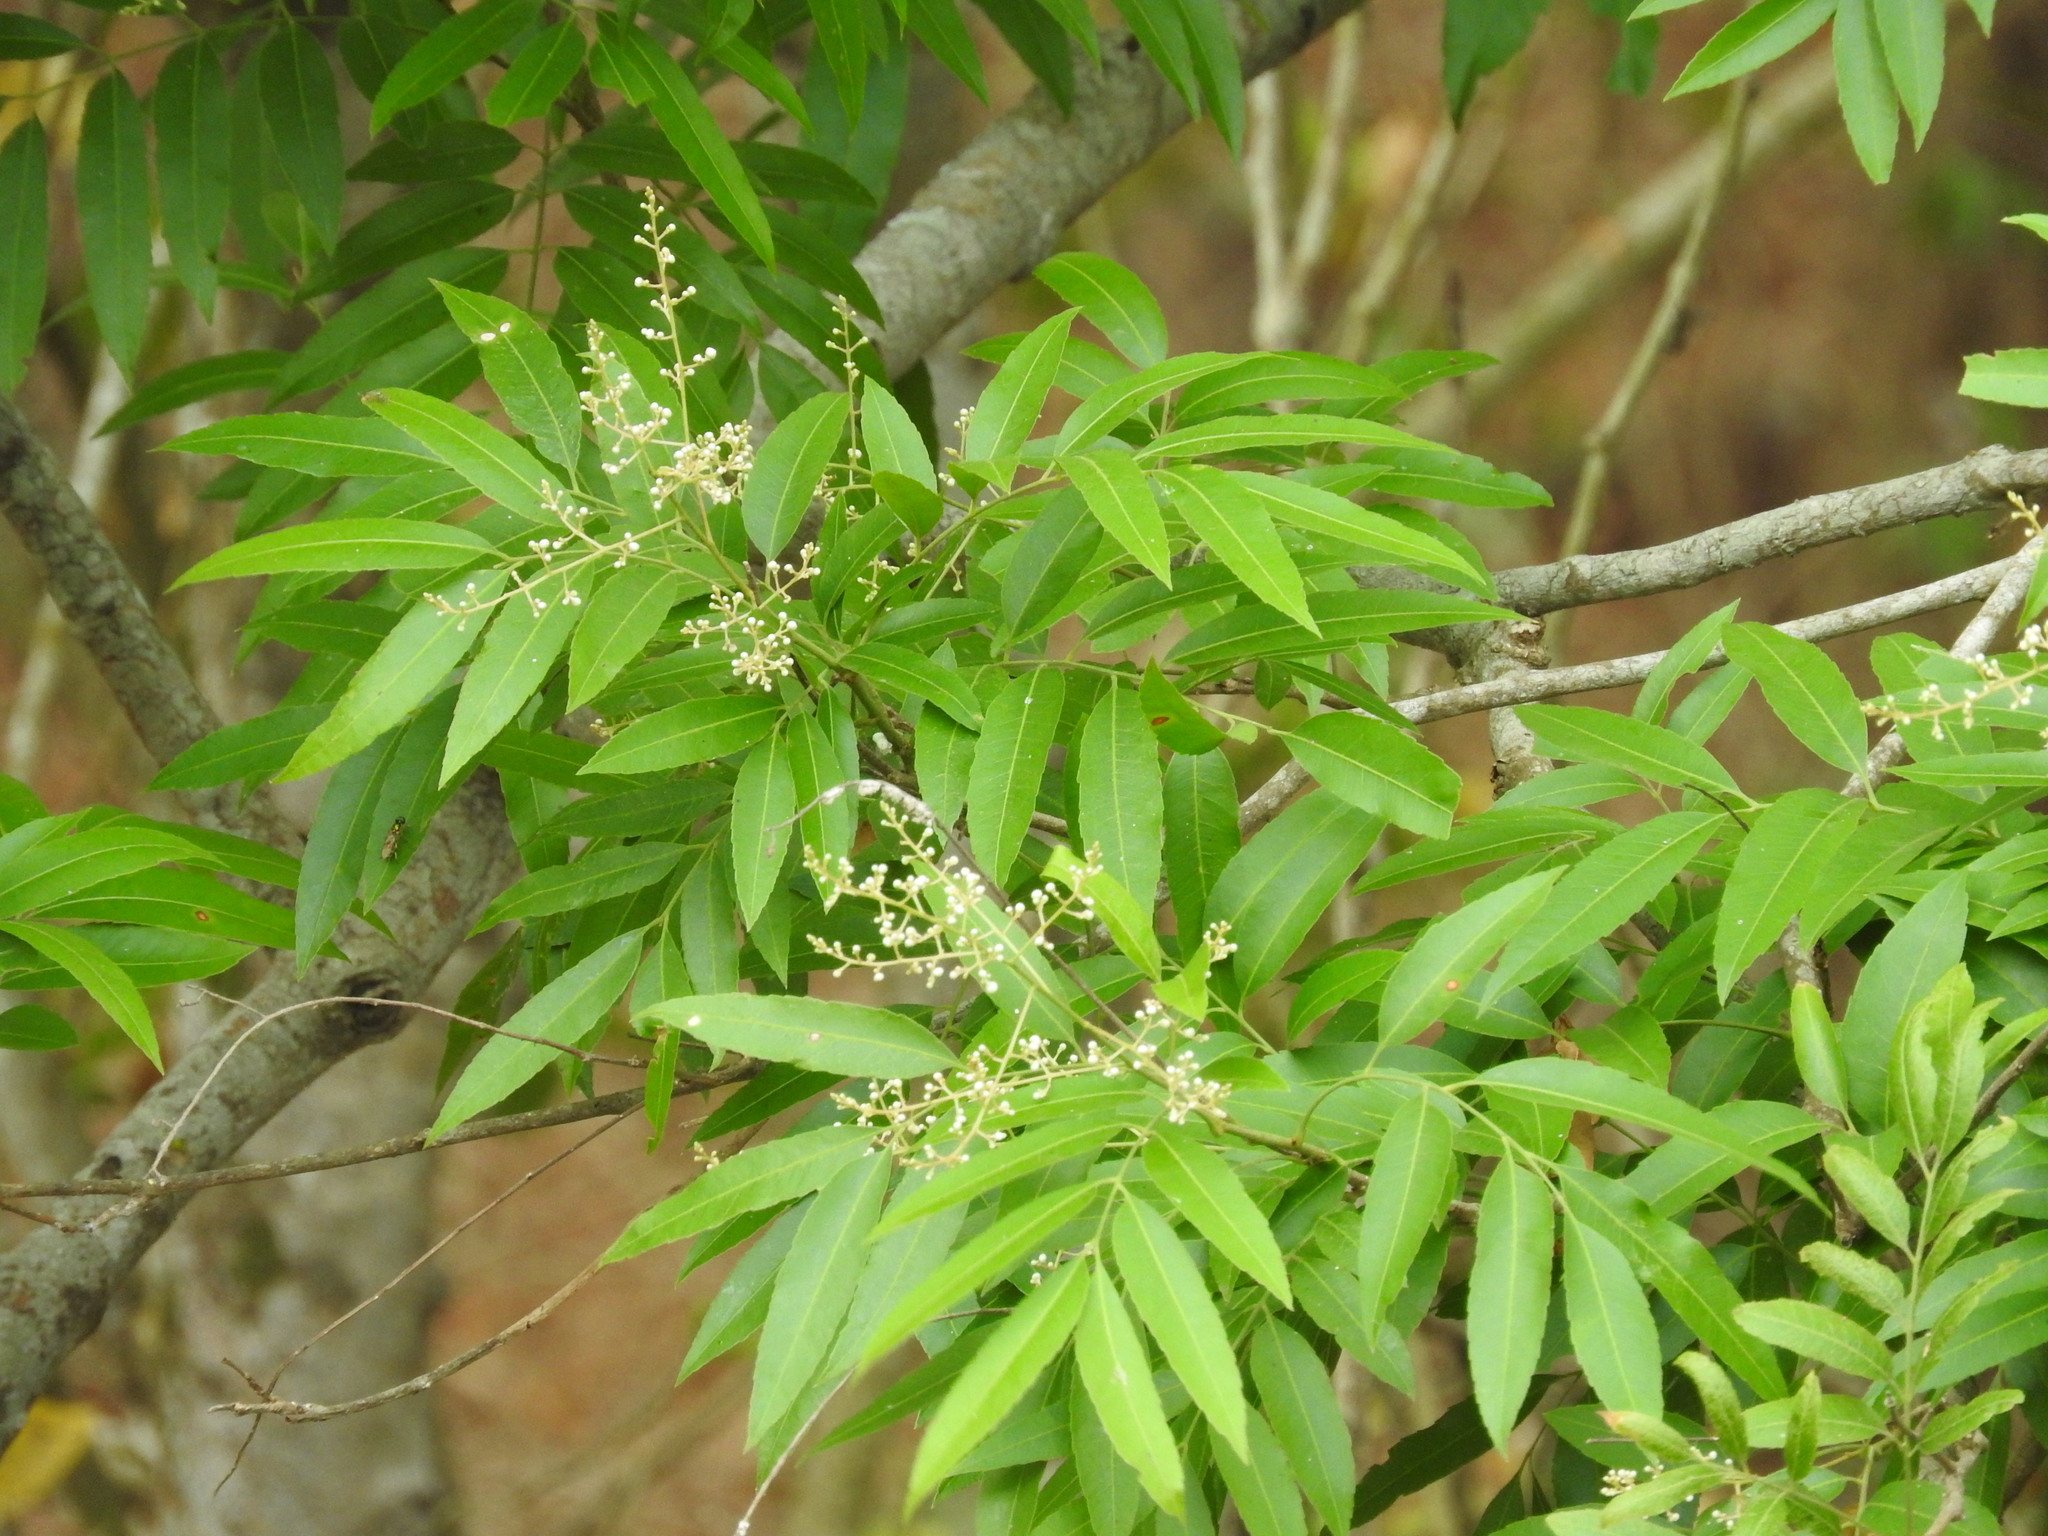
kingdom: Plantae
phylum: Tracheophyta
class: Magnoliopsida
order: Sapindales
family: Sapindaceae
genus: Thouinidium
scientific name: Thouinidium decandrum
